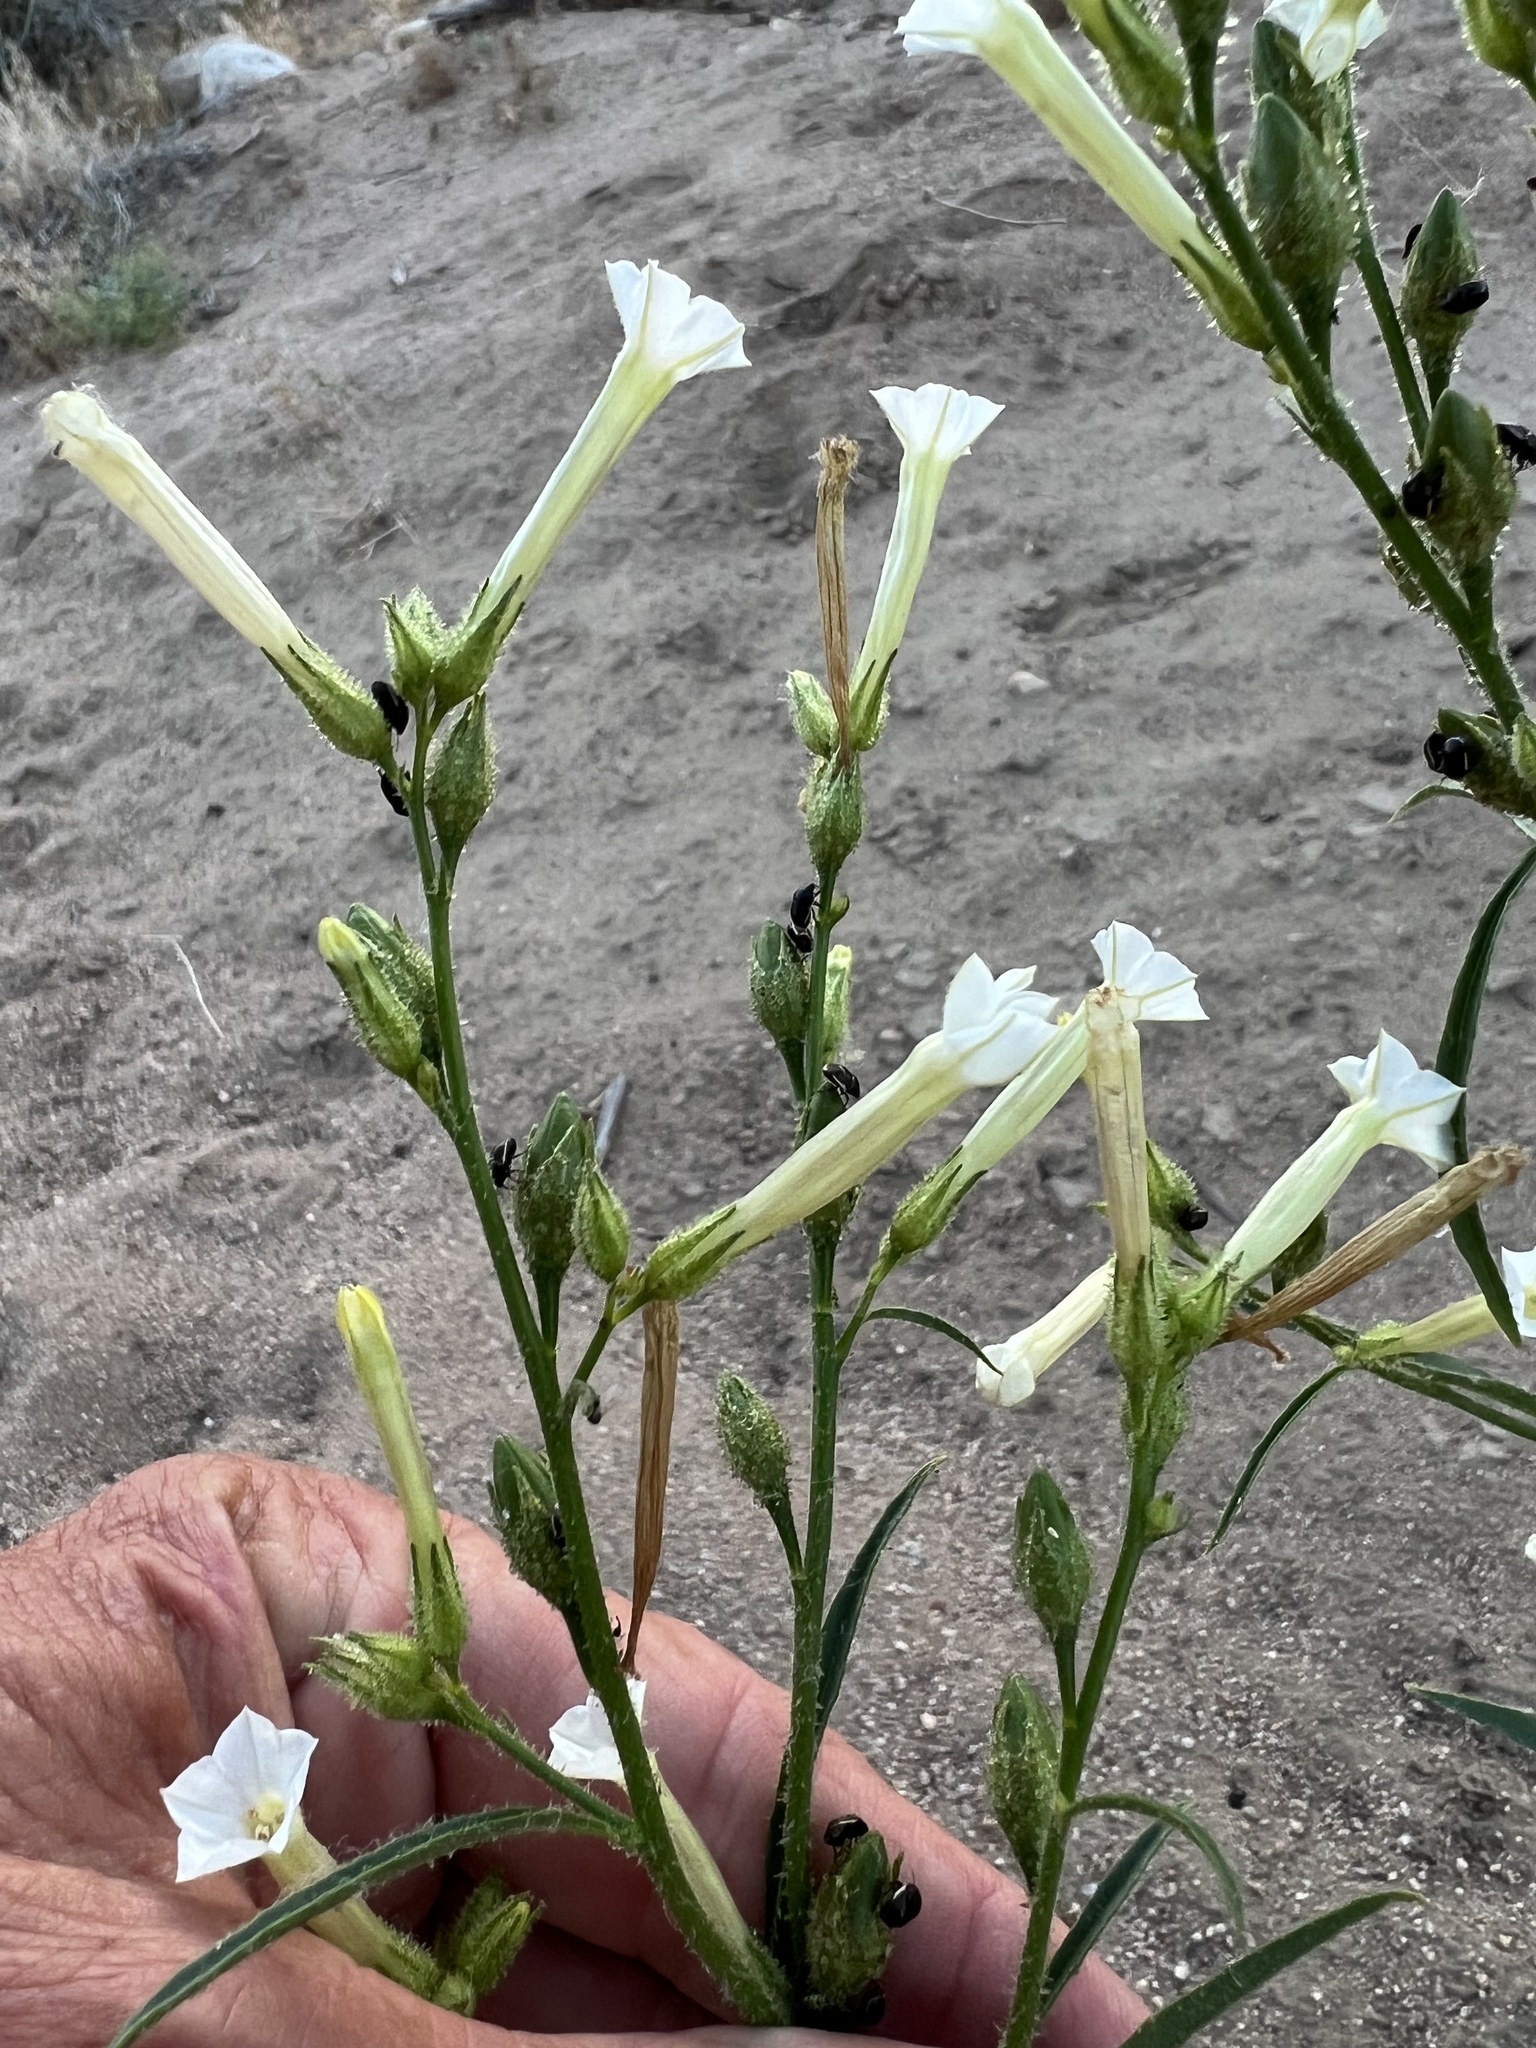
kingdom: Plantae
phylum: Tracheophyta
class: Magnoliopsida
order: Solanales
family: Solanaceae
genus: Nicotiana
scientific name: Nicotiana attenuata
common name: Coyote tobacco
